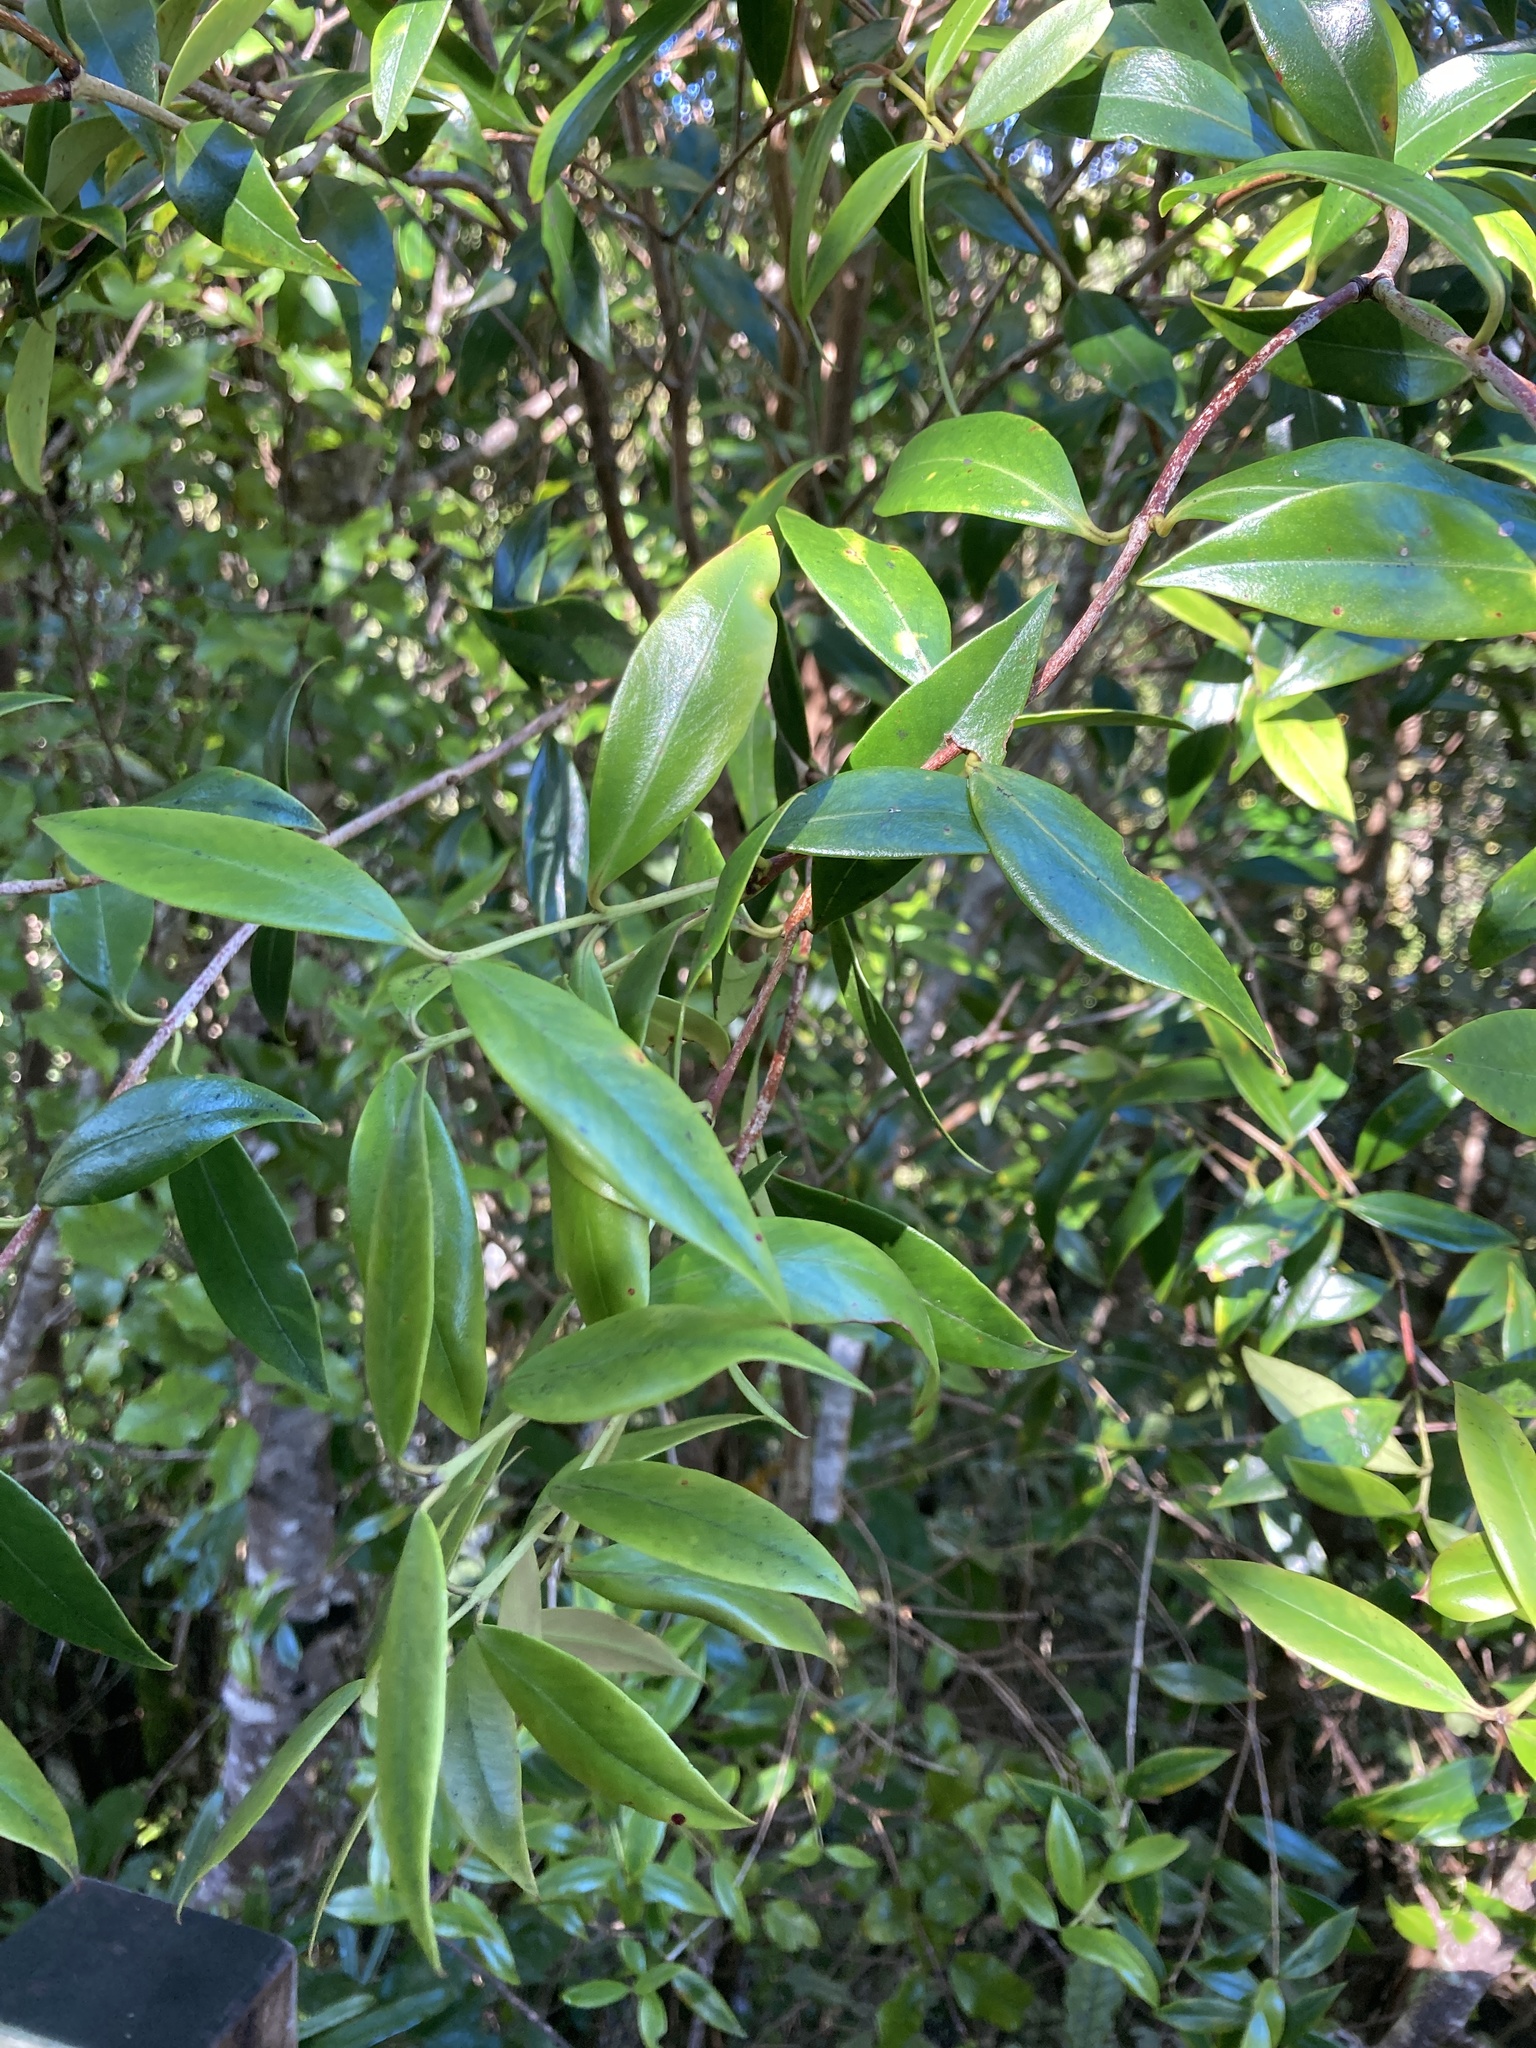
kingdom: Plantae
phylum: Tracheophyta
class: Magnoliopsida
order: Myrtales
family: Myrtaceae
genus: Metrosideros
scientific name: Metrosideros umbellata
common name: Southern rata
